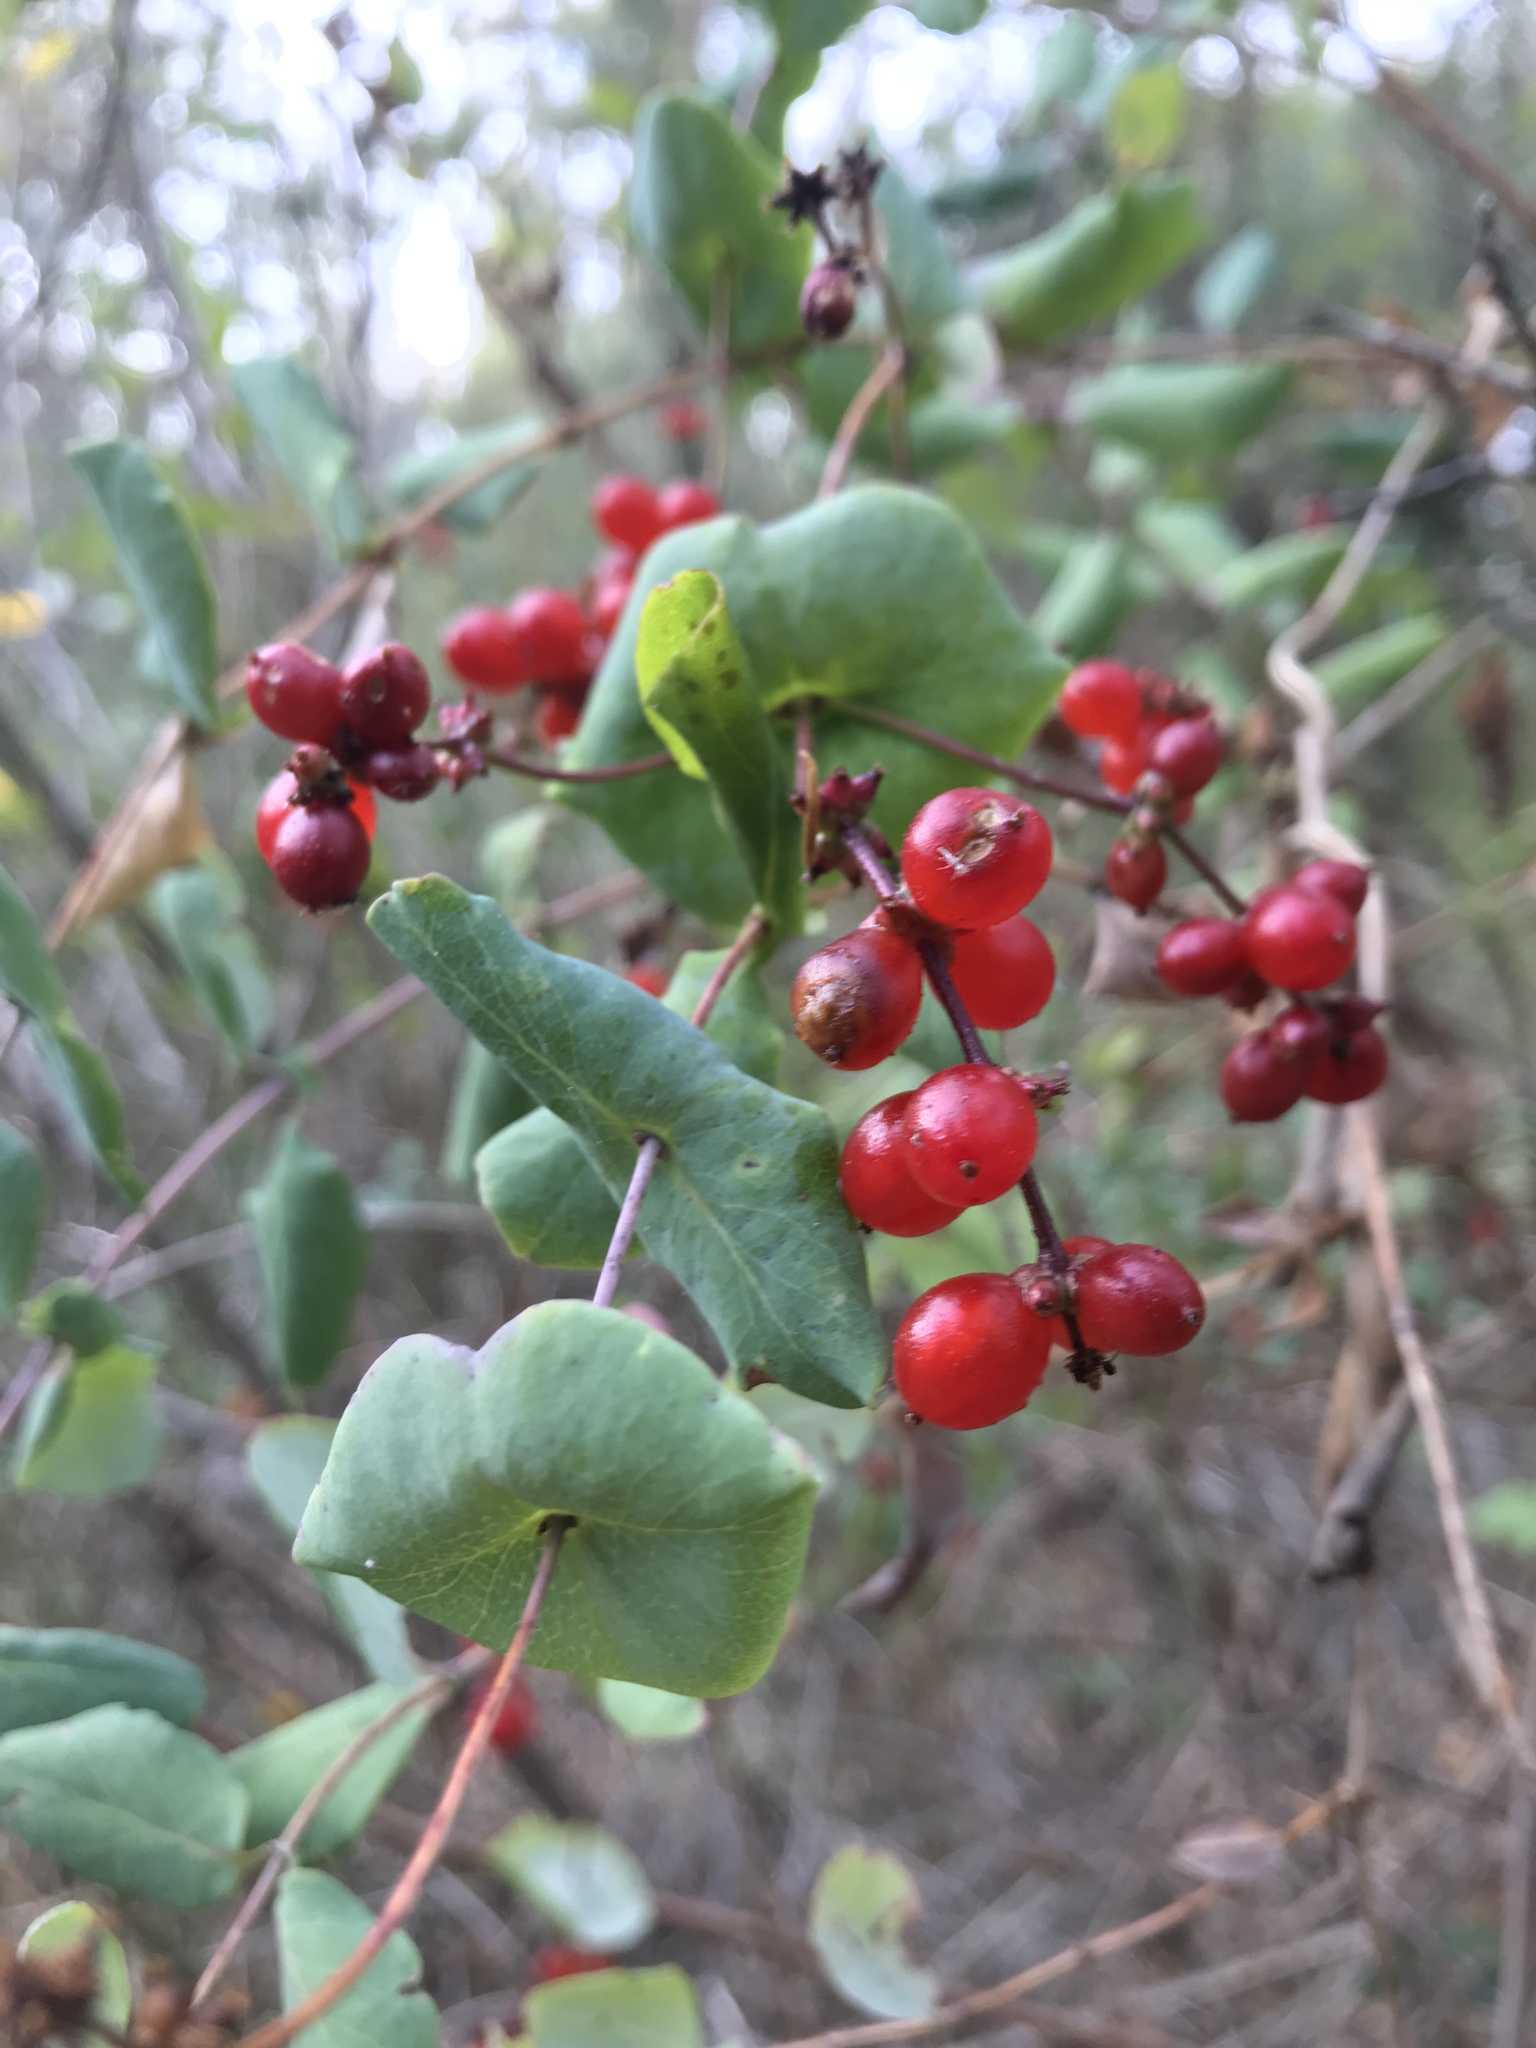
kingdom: Plantae
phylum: Tracheophyta
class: Magnoliopsida
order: Dipsacales
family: Caprifoliaceae
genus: Lonicera
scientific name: Lonicera hispidula
